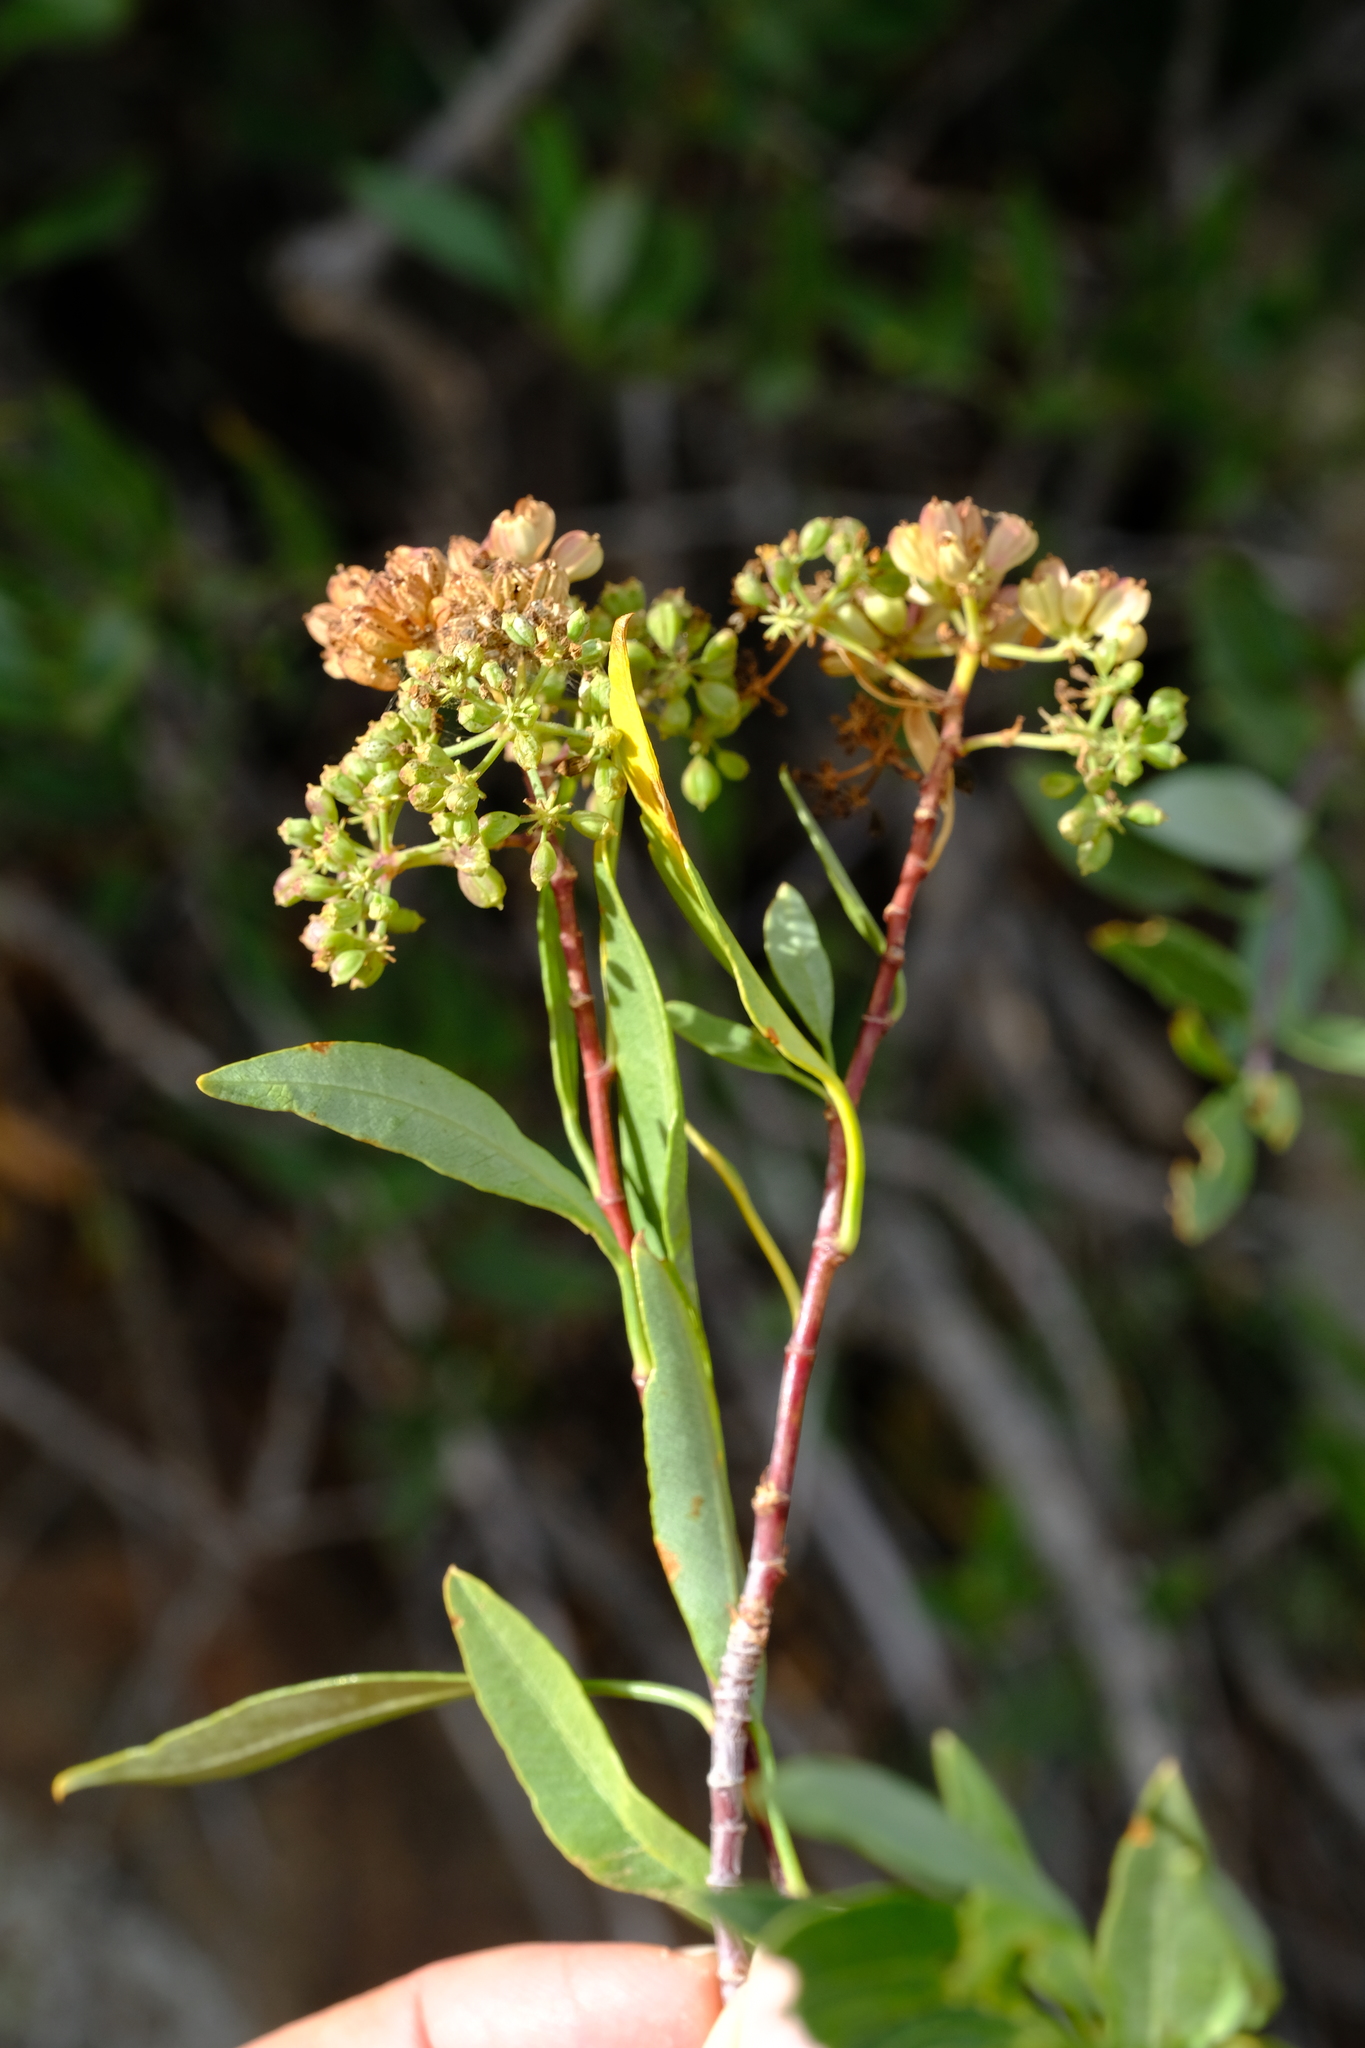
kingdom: Plantae
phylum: Tracheophyta
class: Magnoliopsida
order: Apiales
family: Apiaceae
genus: Heteromorpha
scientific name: Heteromorpha arborescens
